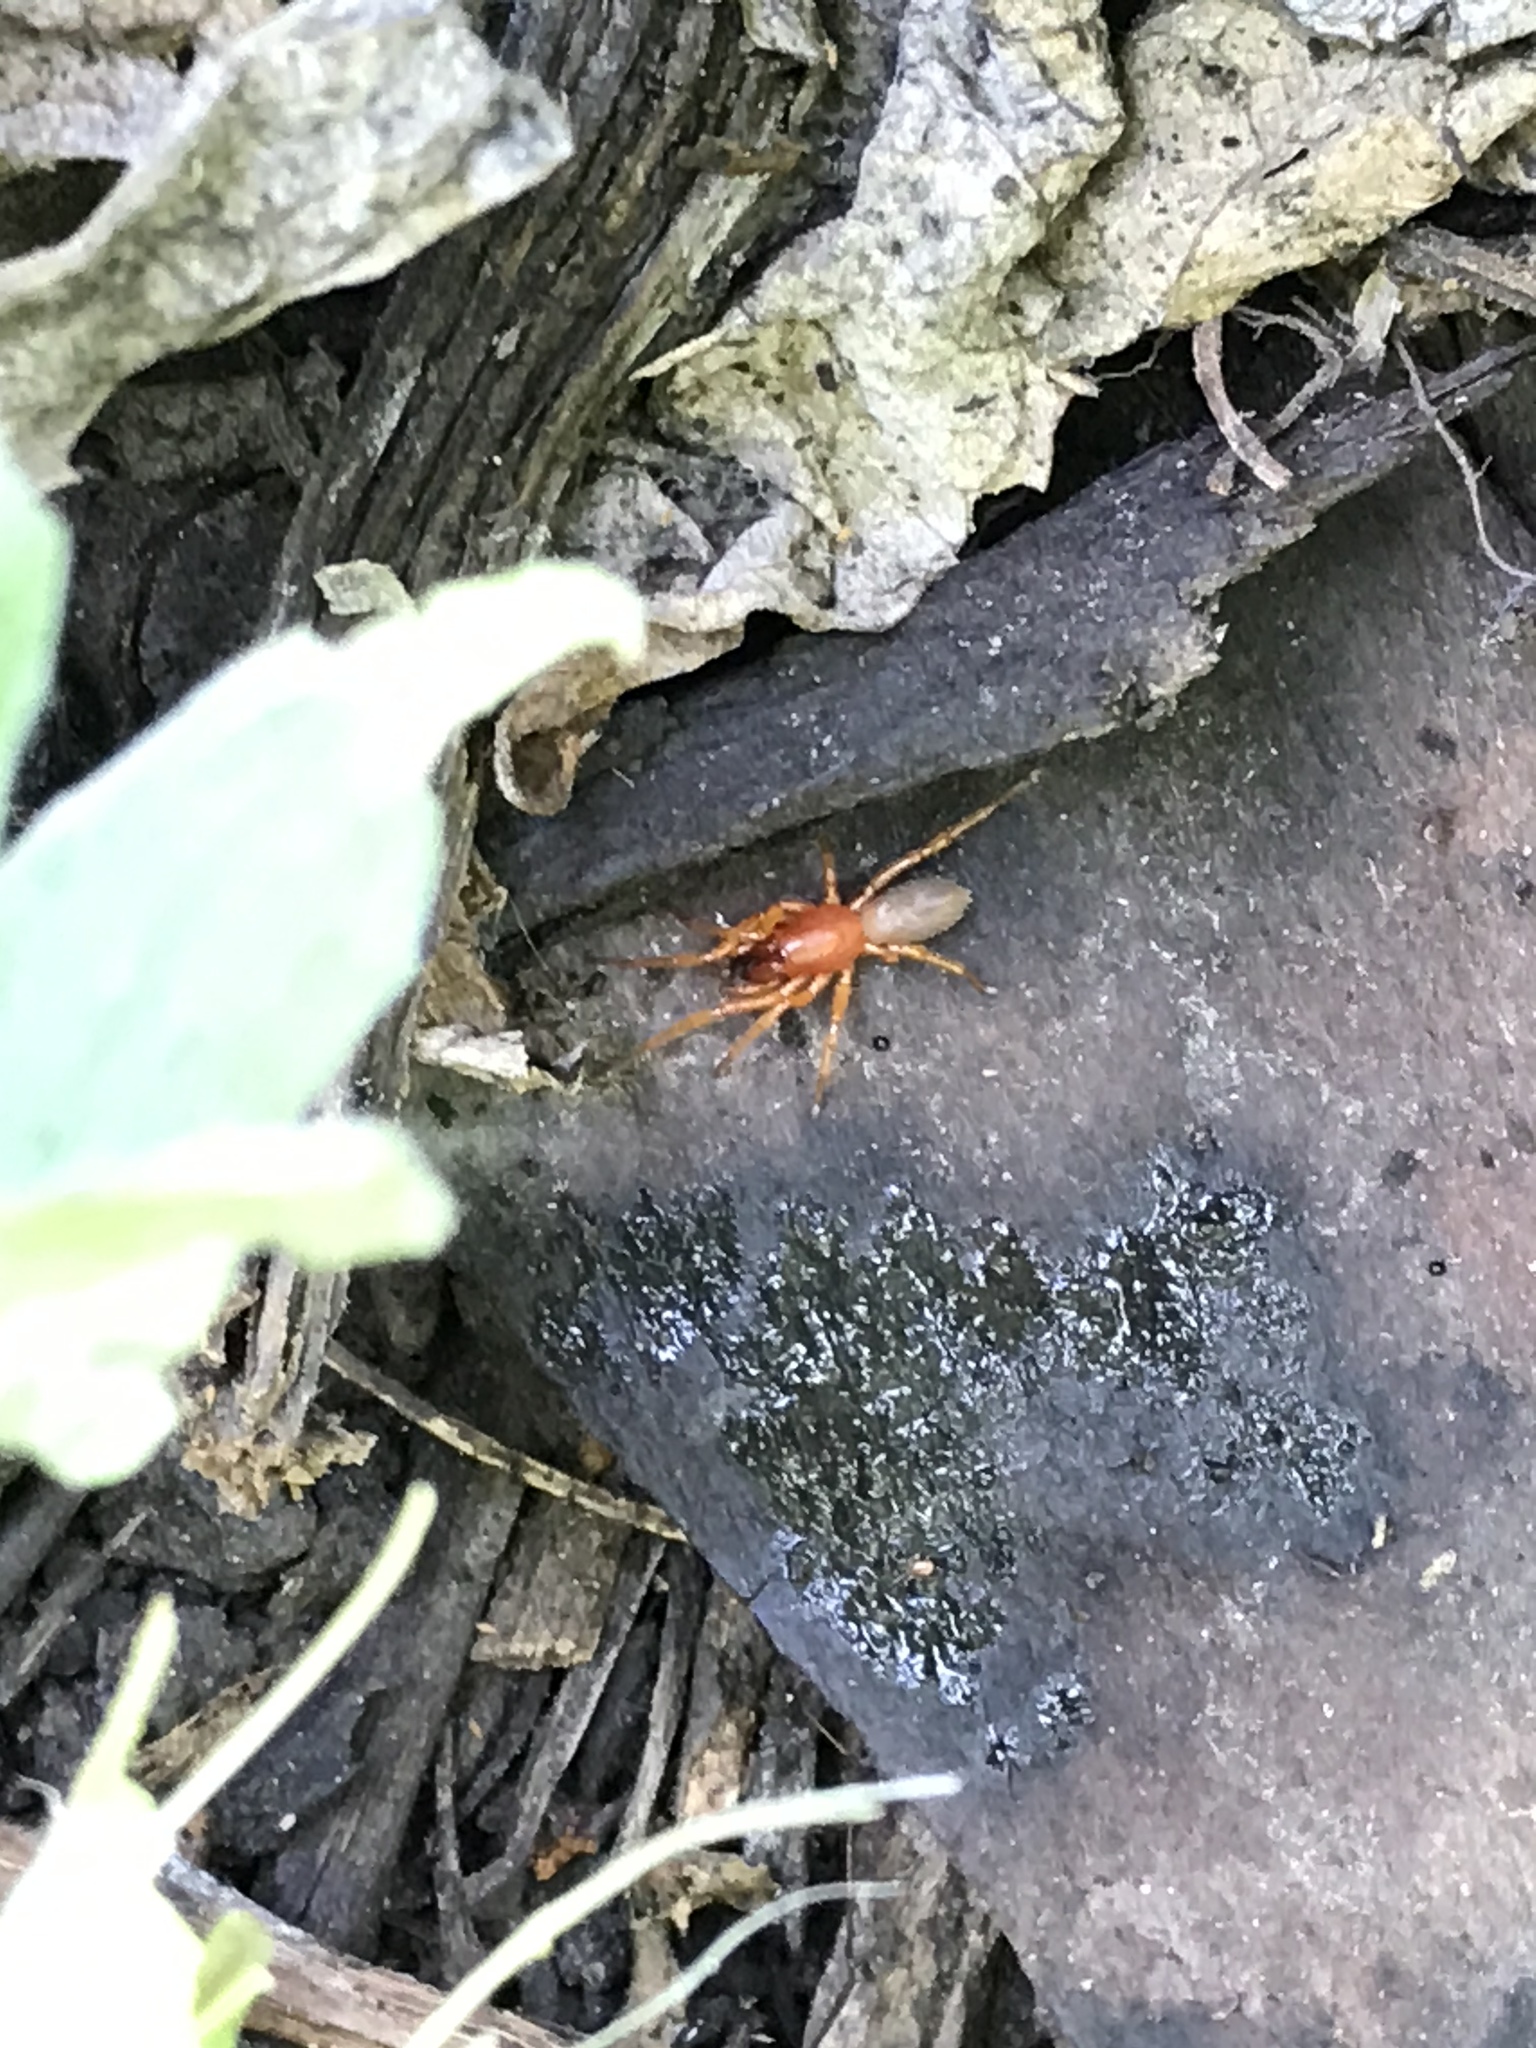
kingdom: Animalia
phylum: Arthropoda
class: Arachnida
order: Araneae
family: Dysderidae
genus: Dysdera
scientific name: Dysdera crocata
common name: Woodlouse spider
